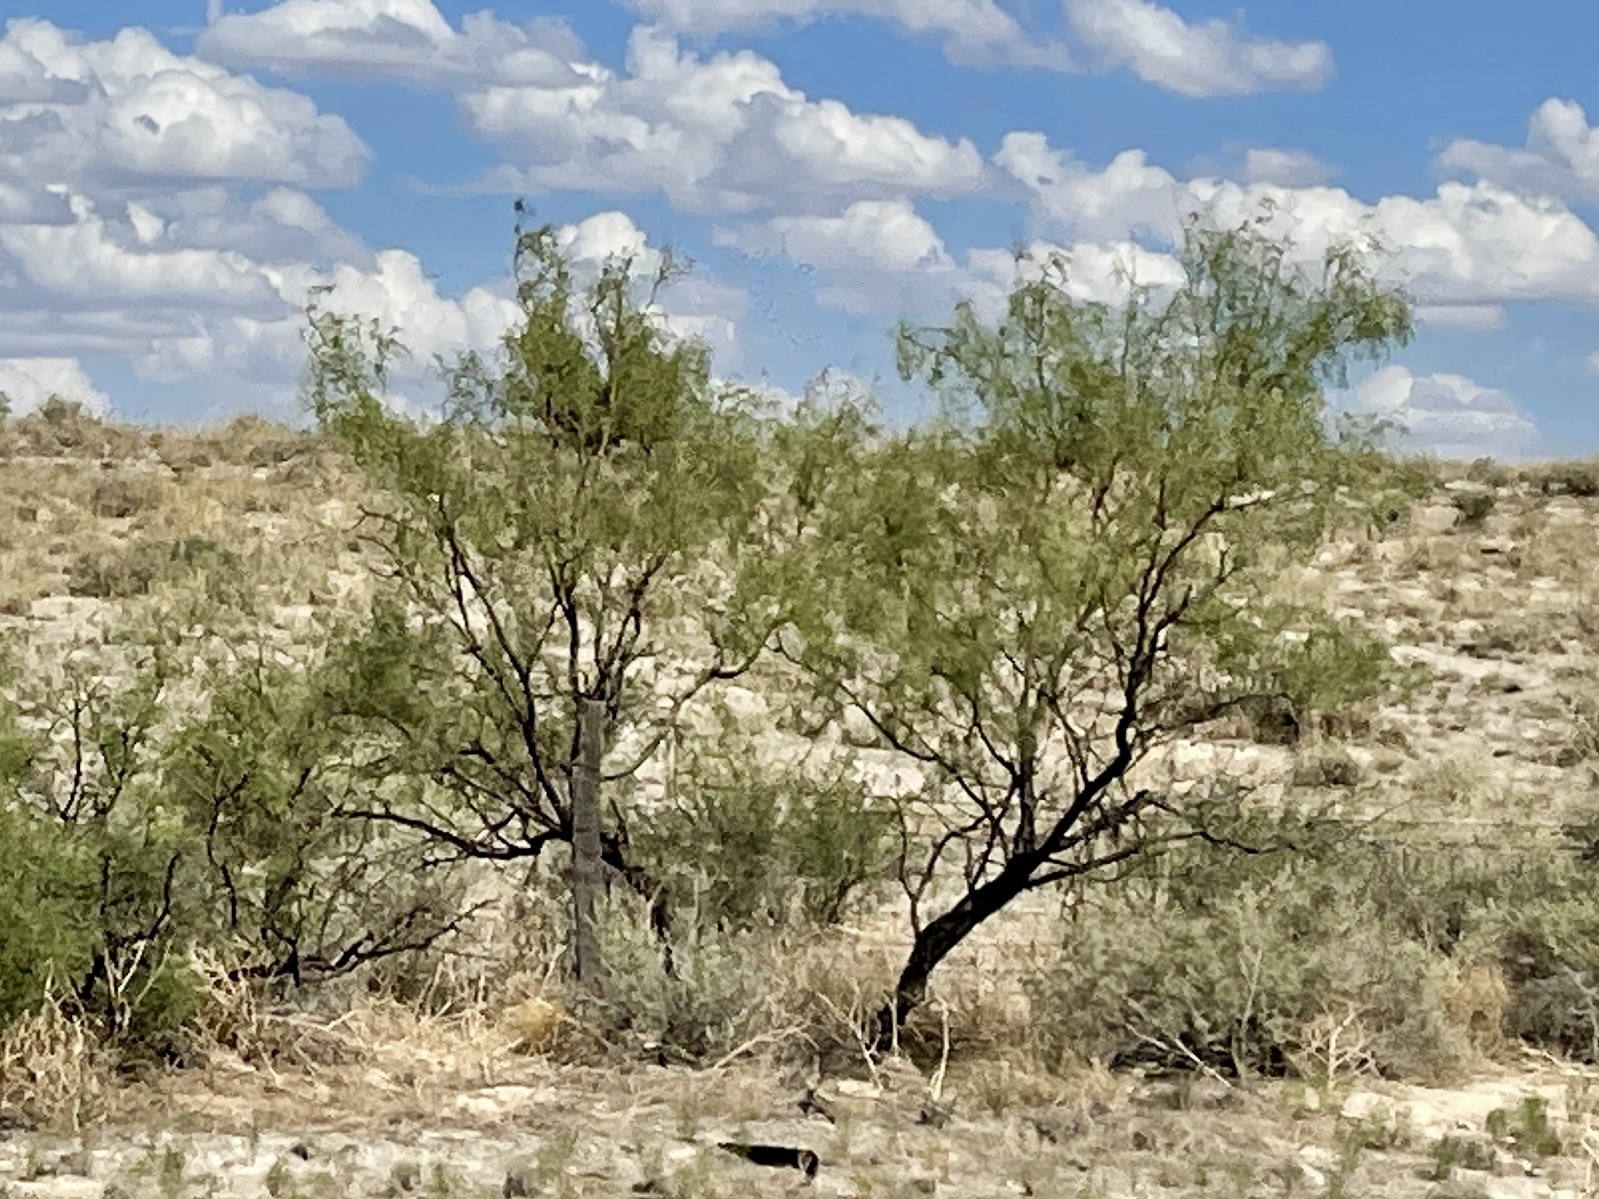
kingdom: Plantae
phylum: Tracheophyta
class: Magnoliopsida
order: Fabales
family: Fabaceae
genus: Prosopis
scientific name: Prosopis glandulosa
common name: Honey mesquite
